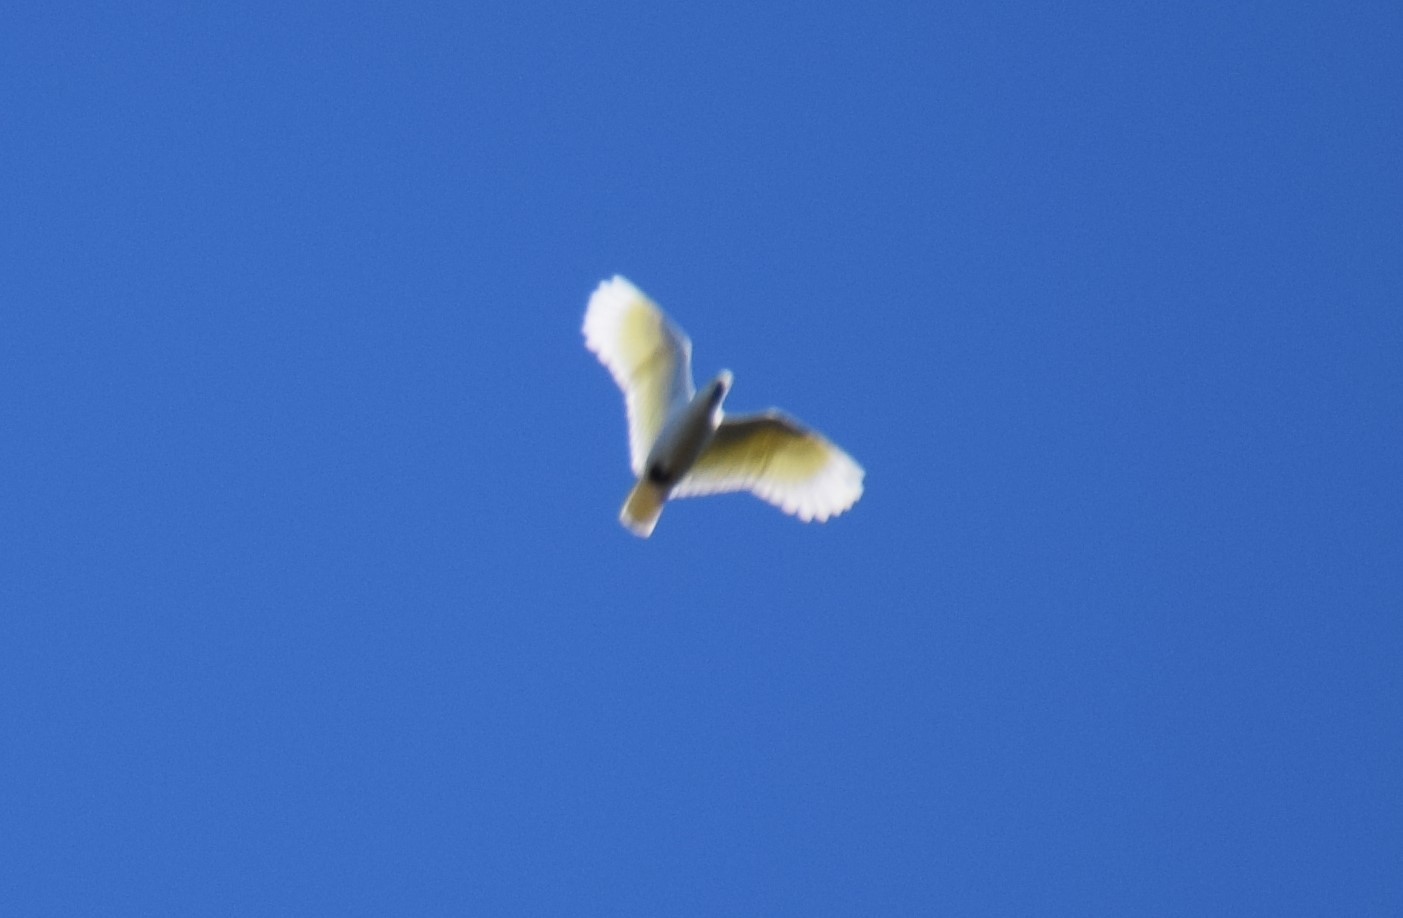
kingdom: Animalia
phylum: Chordata
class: Aves
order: Psittaciformes
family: Psittacidae
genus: Cacatua
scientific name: Cacatua galerita
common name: Sulphur-crested cockatoo
